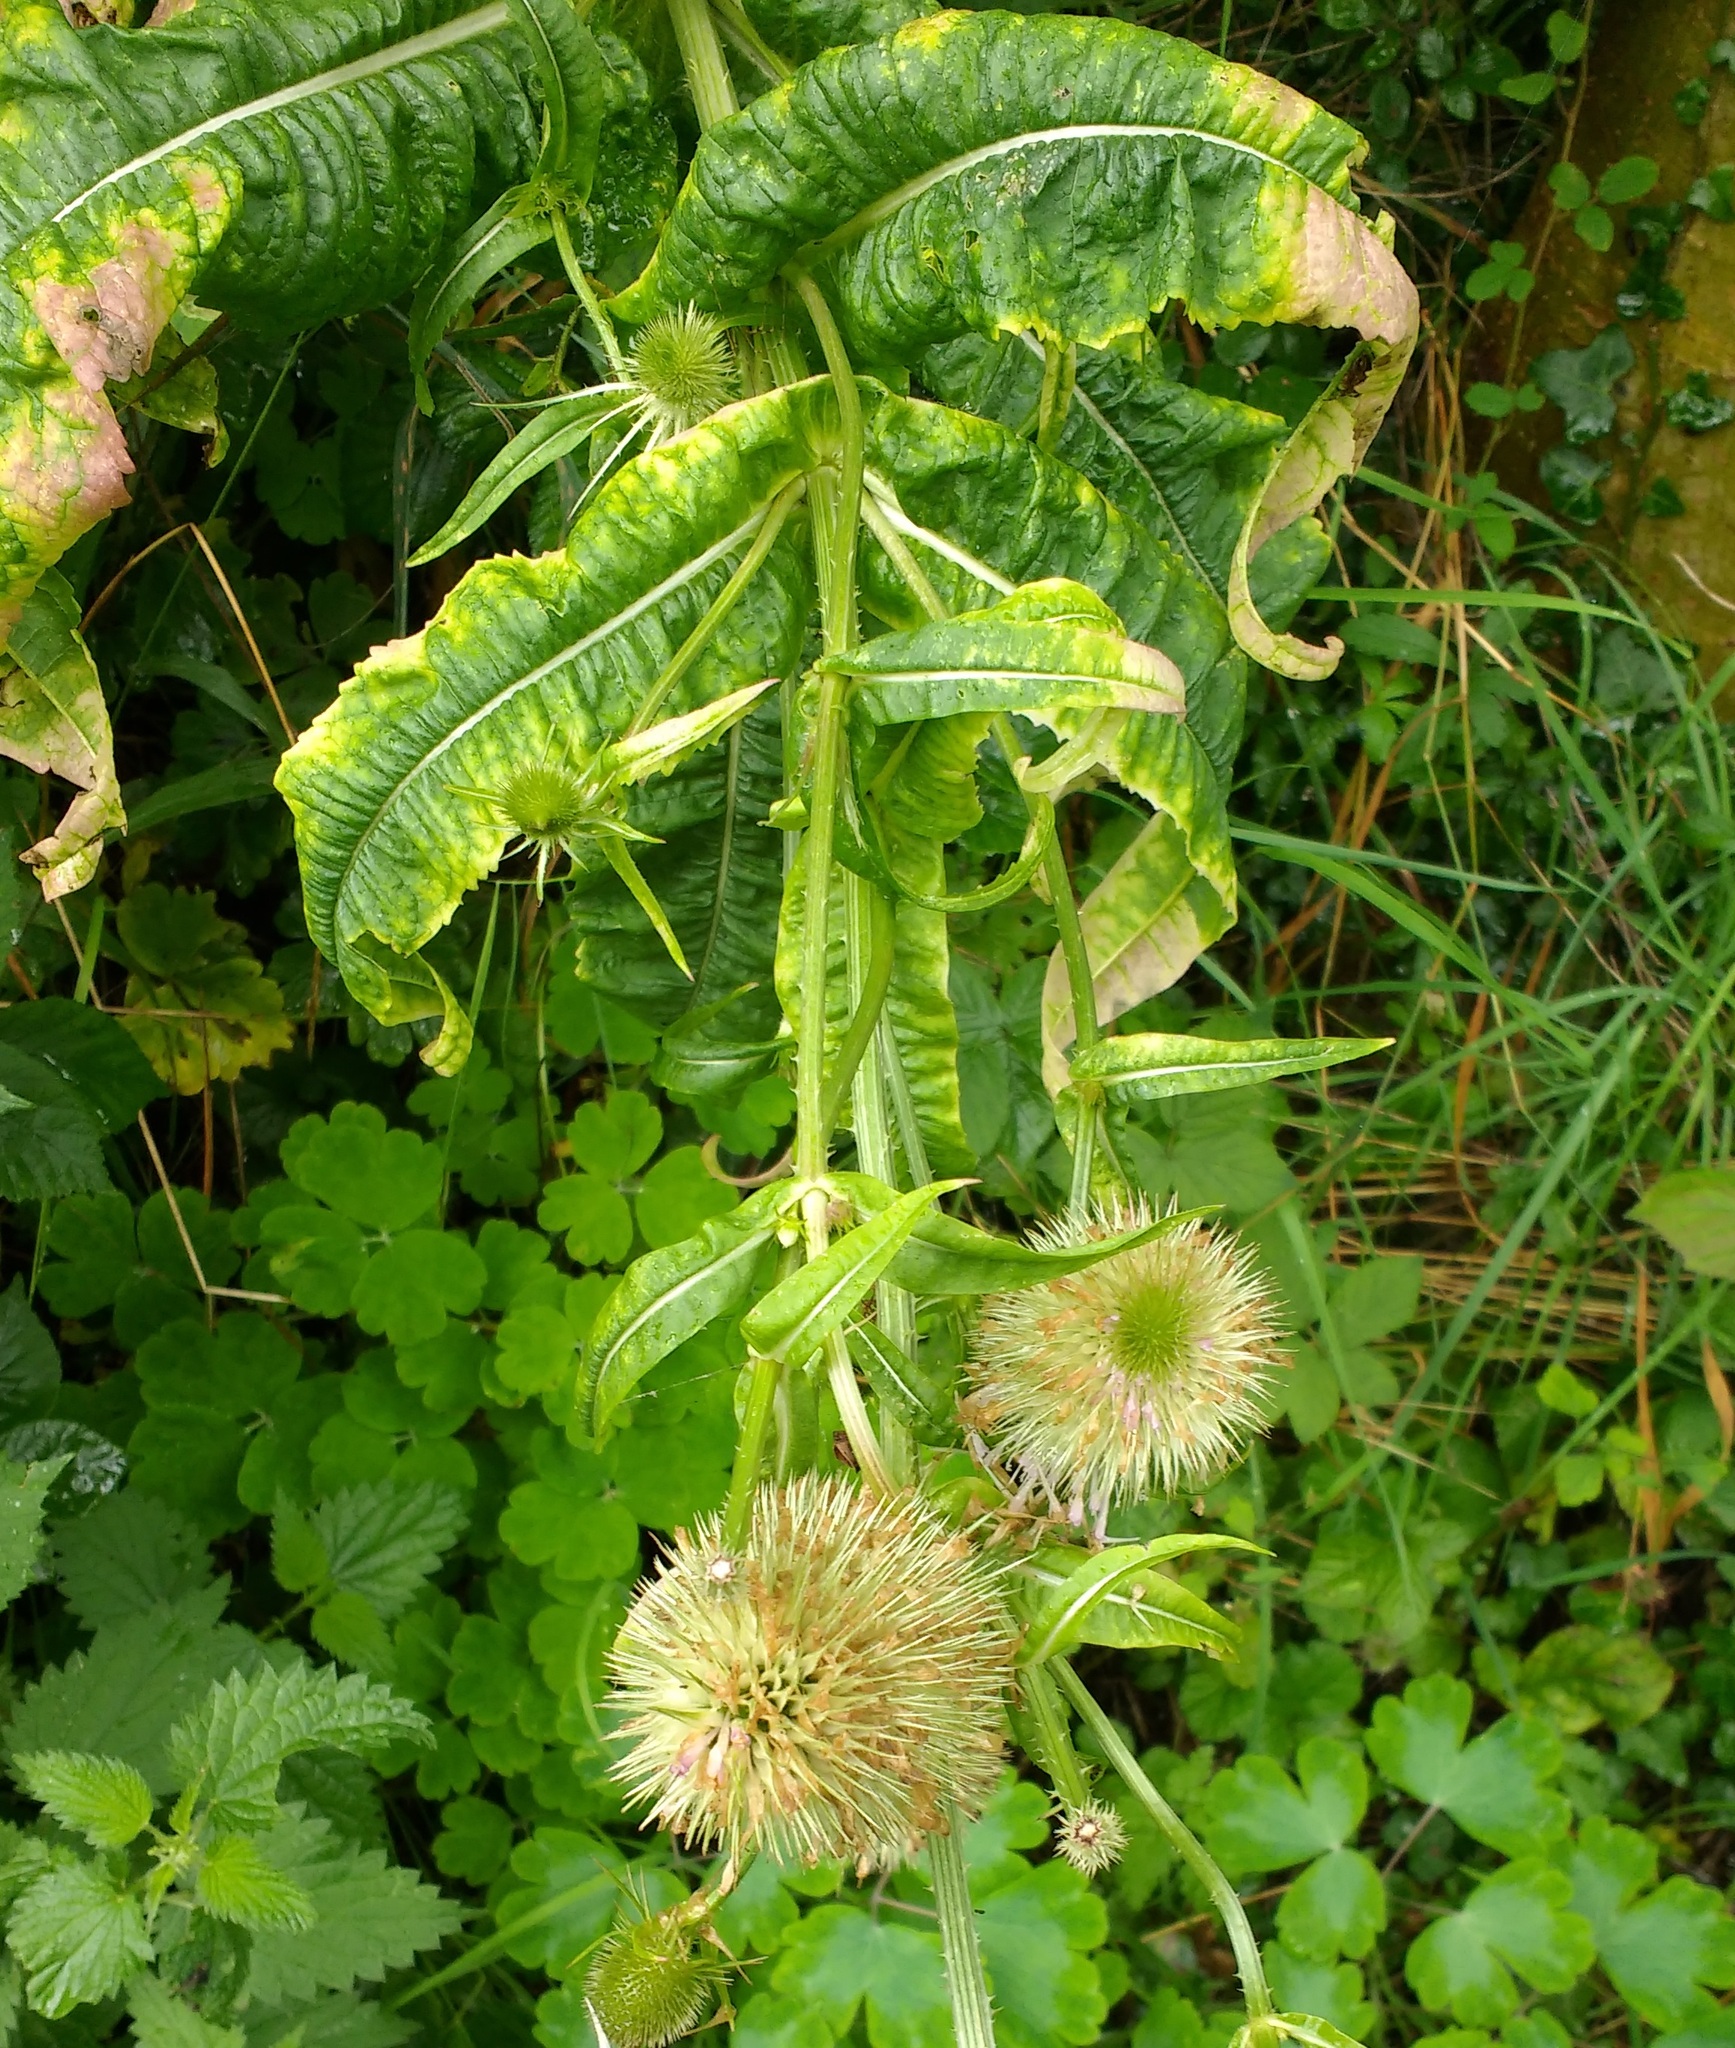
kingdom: Plantae
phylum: Tracheophyta
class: Magnoliopsida
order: Dipsacales
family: Caprifoliaceae
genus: Dipsacus
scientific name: Dipsacus fullonum
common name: Teasel
